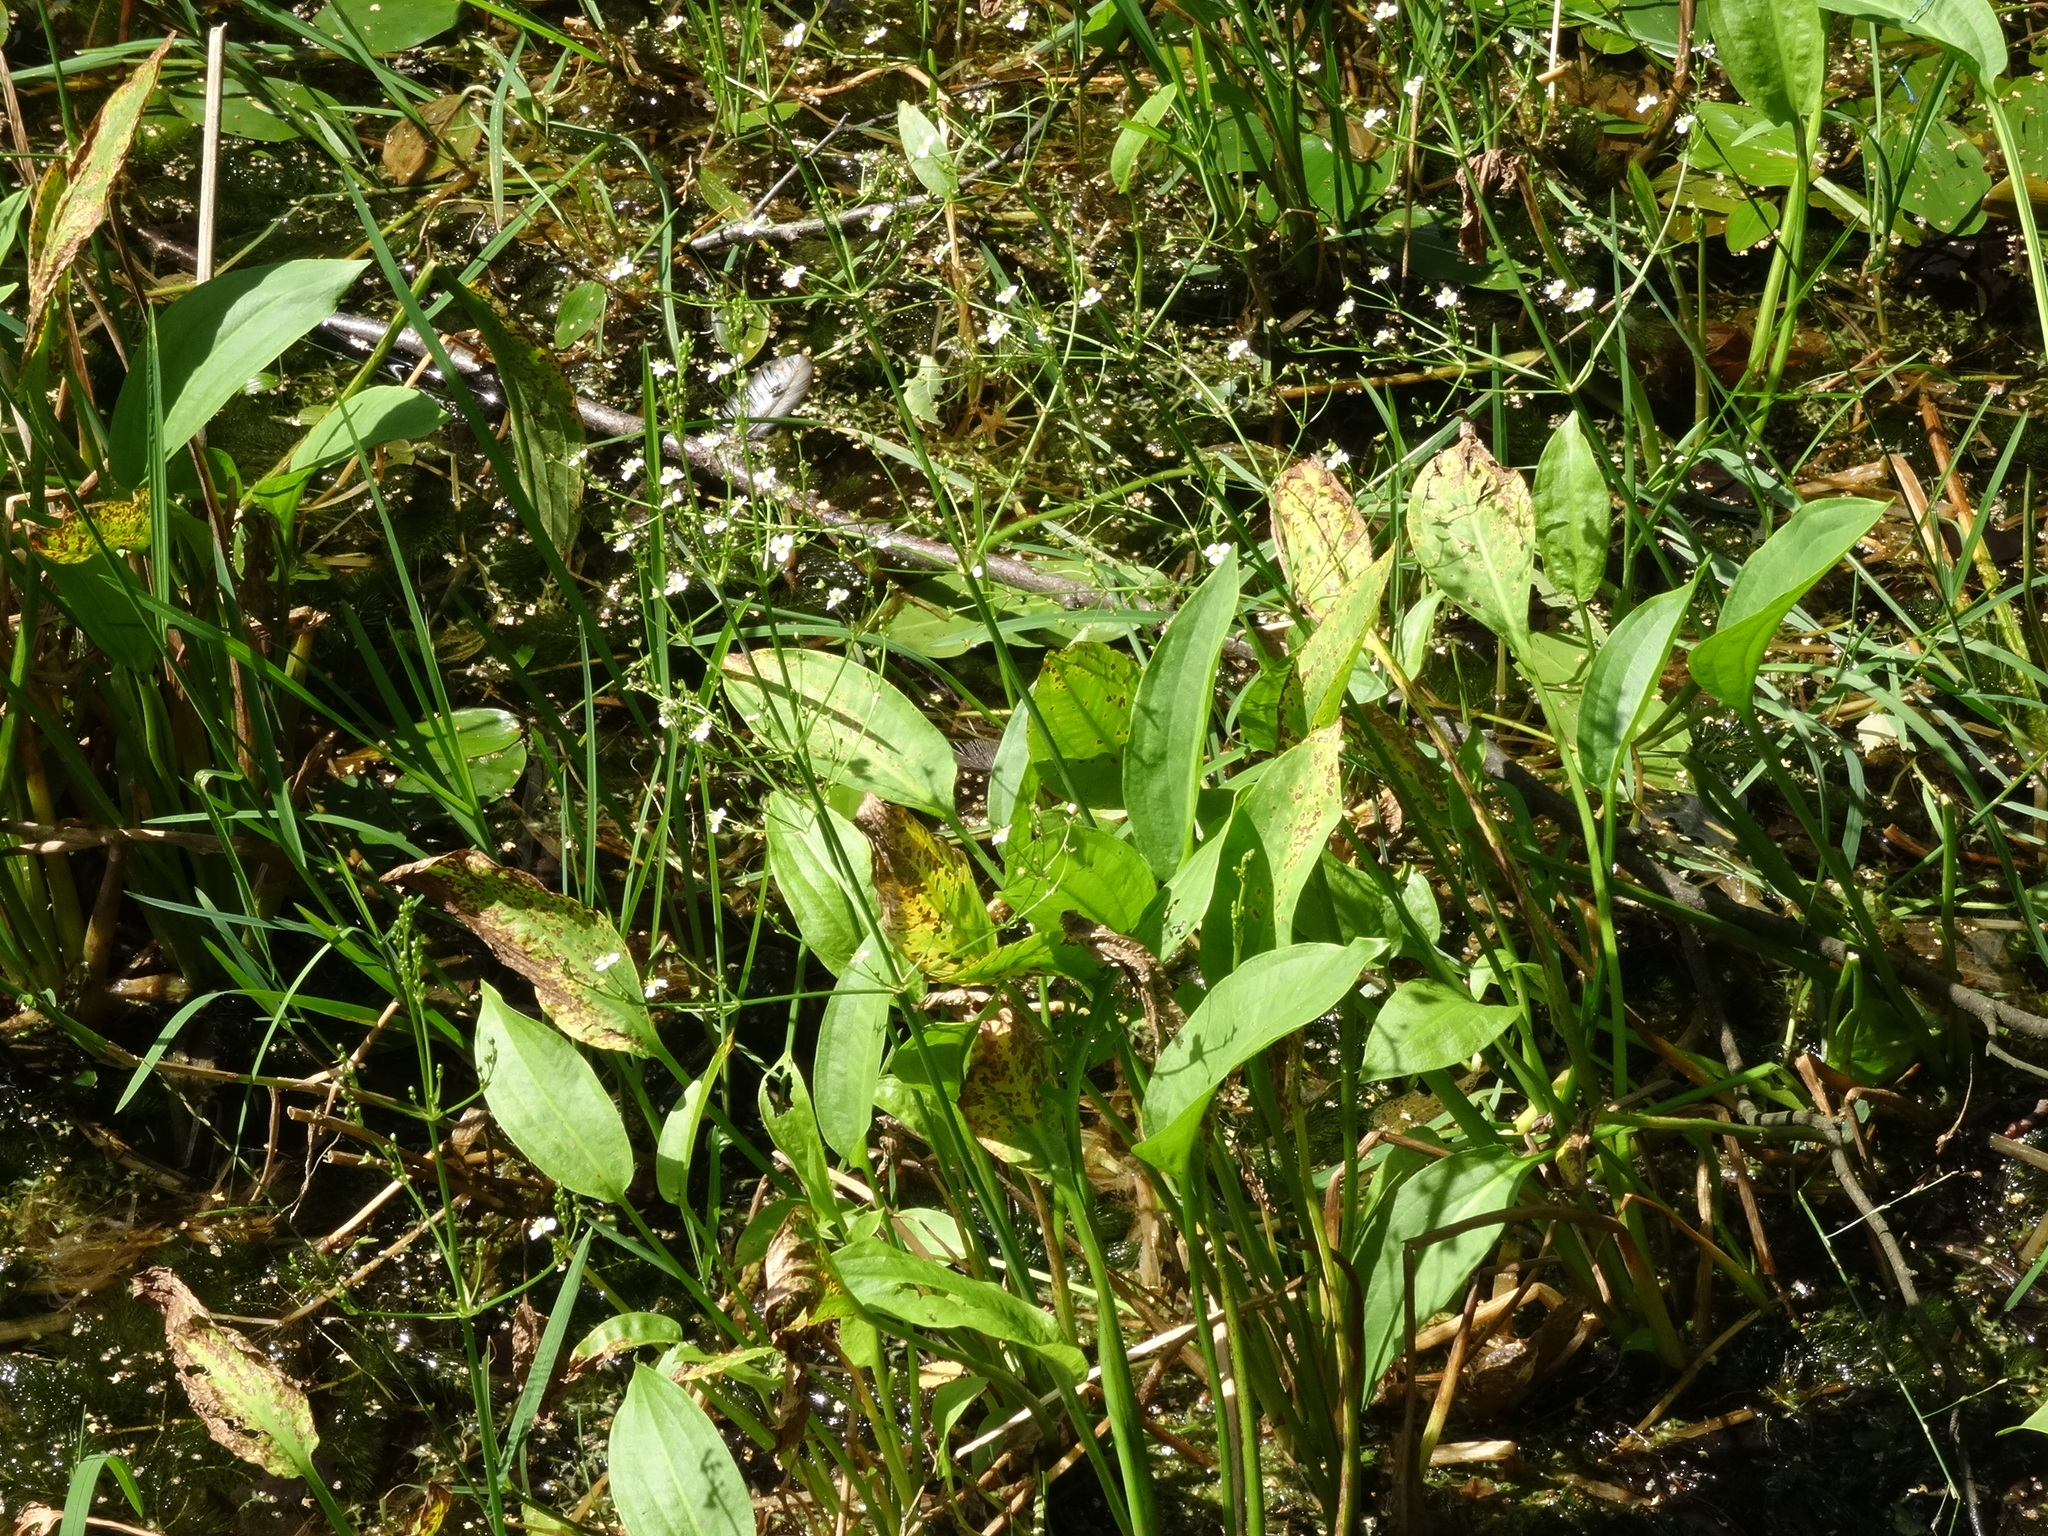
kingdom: Plantae
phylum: Tracheophyta
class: Liliopsida
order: Alismatales
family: Alismataceae
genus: Alisma
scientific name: Alisma plantago-aquatica
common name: Water-plantain
